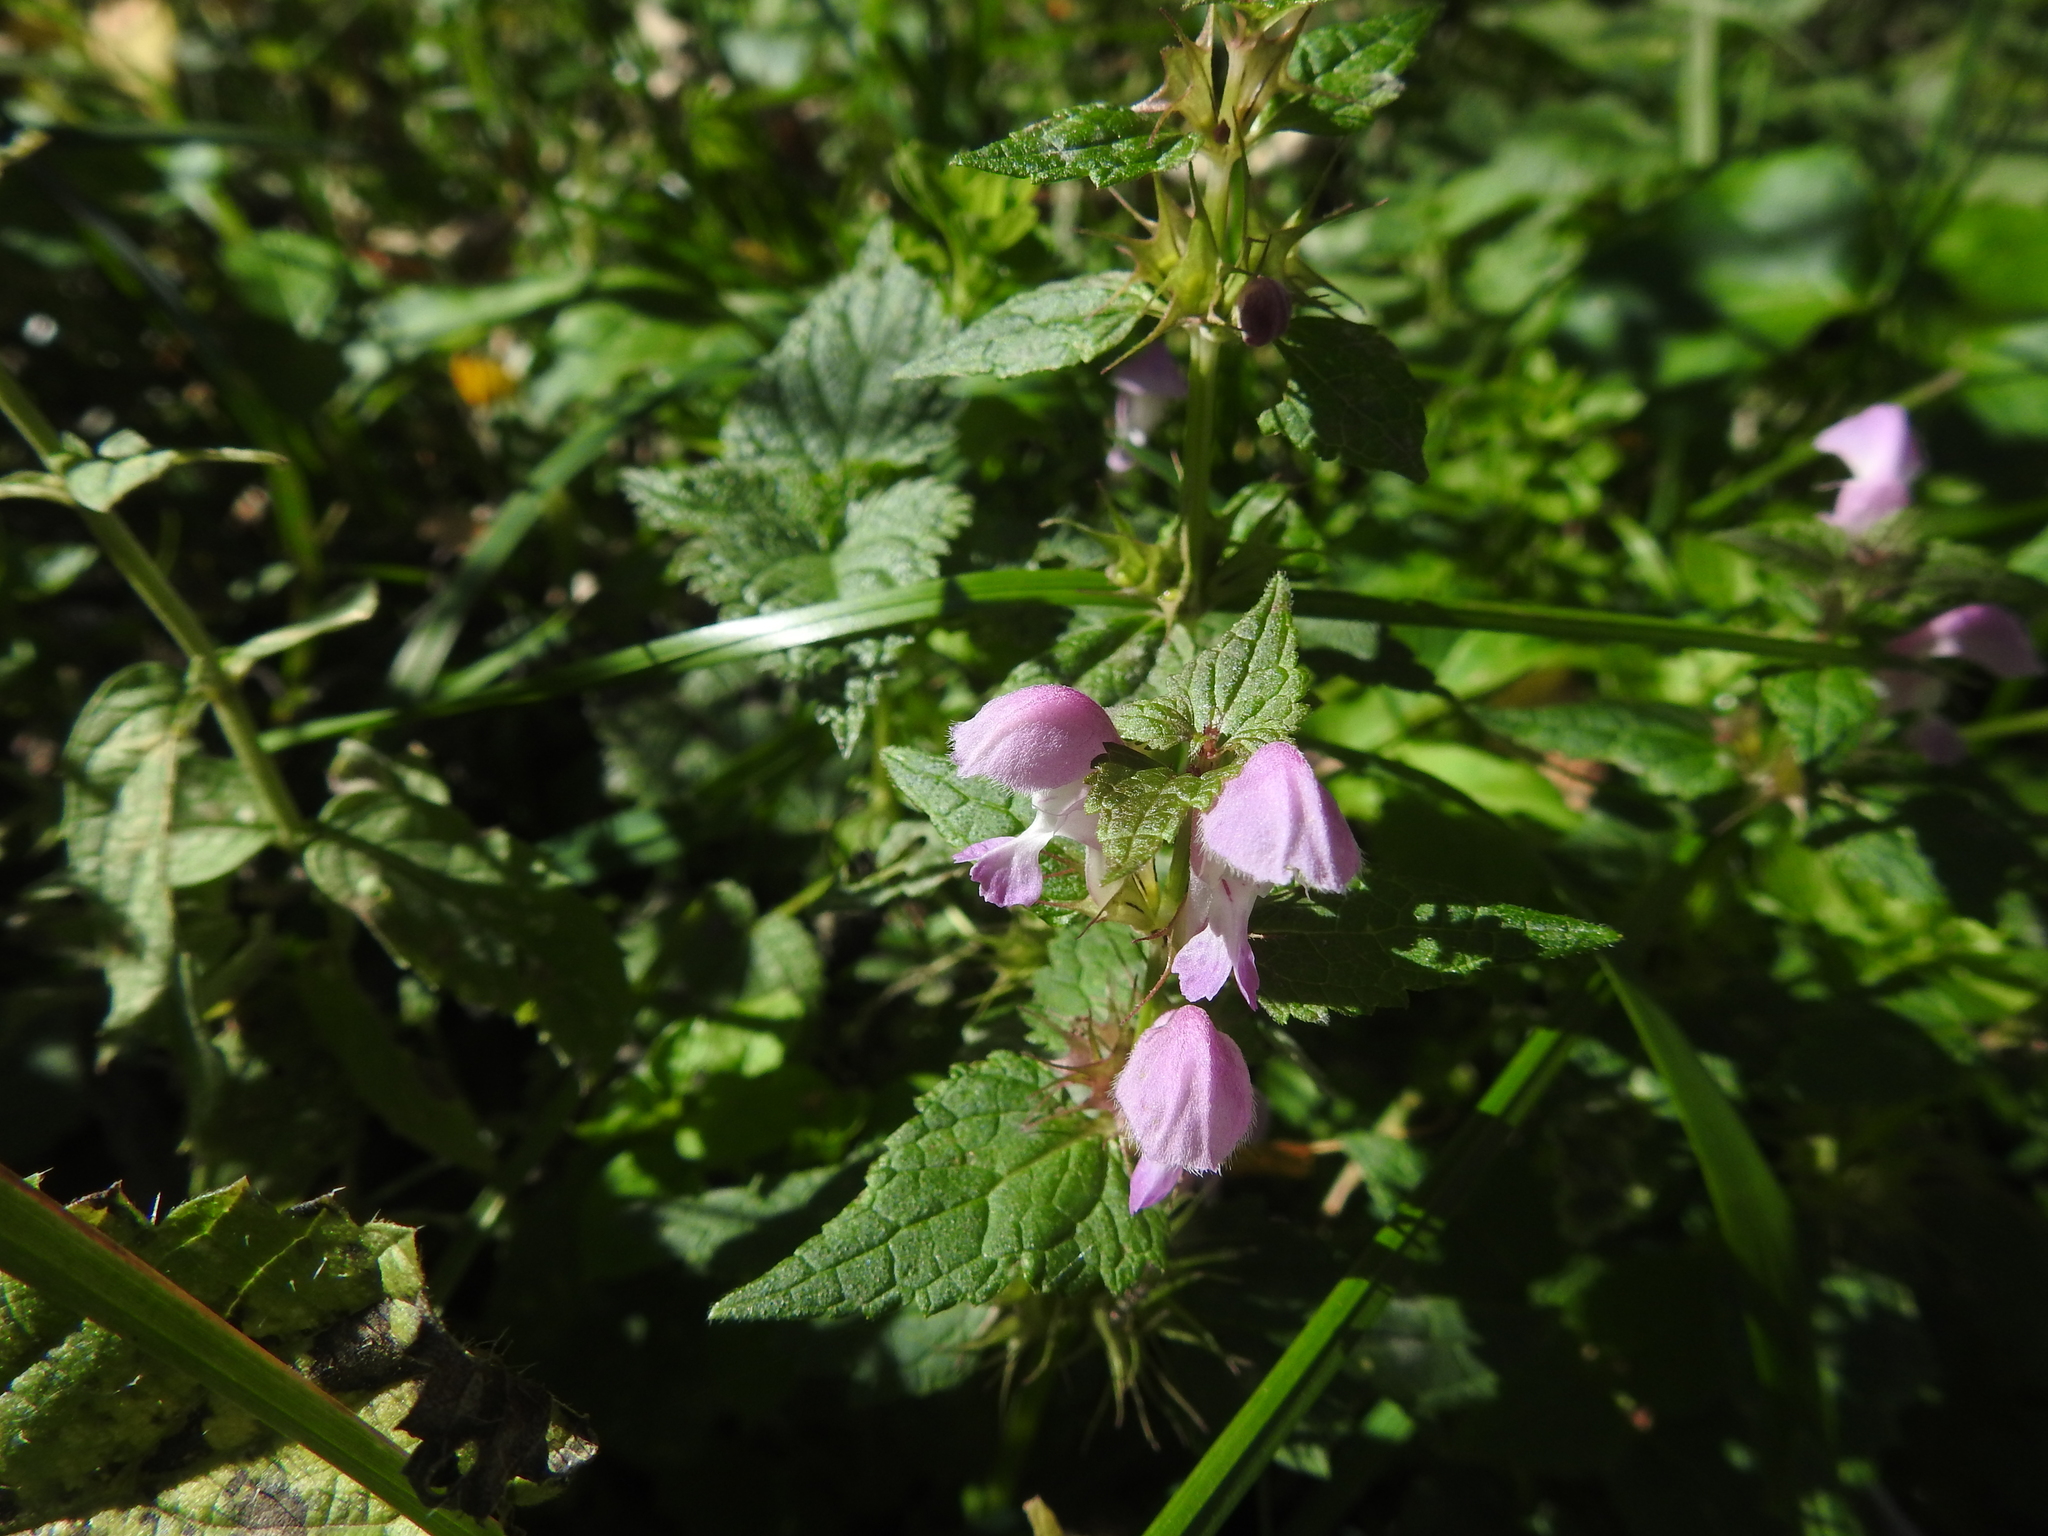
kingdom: Plantae
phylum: Tracheophyta
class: Magnoliopsida
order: Lamiales
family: Lamiaceae
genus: Lamium
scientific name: Lamium maculatum
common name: Spotted dead-nettle
